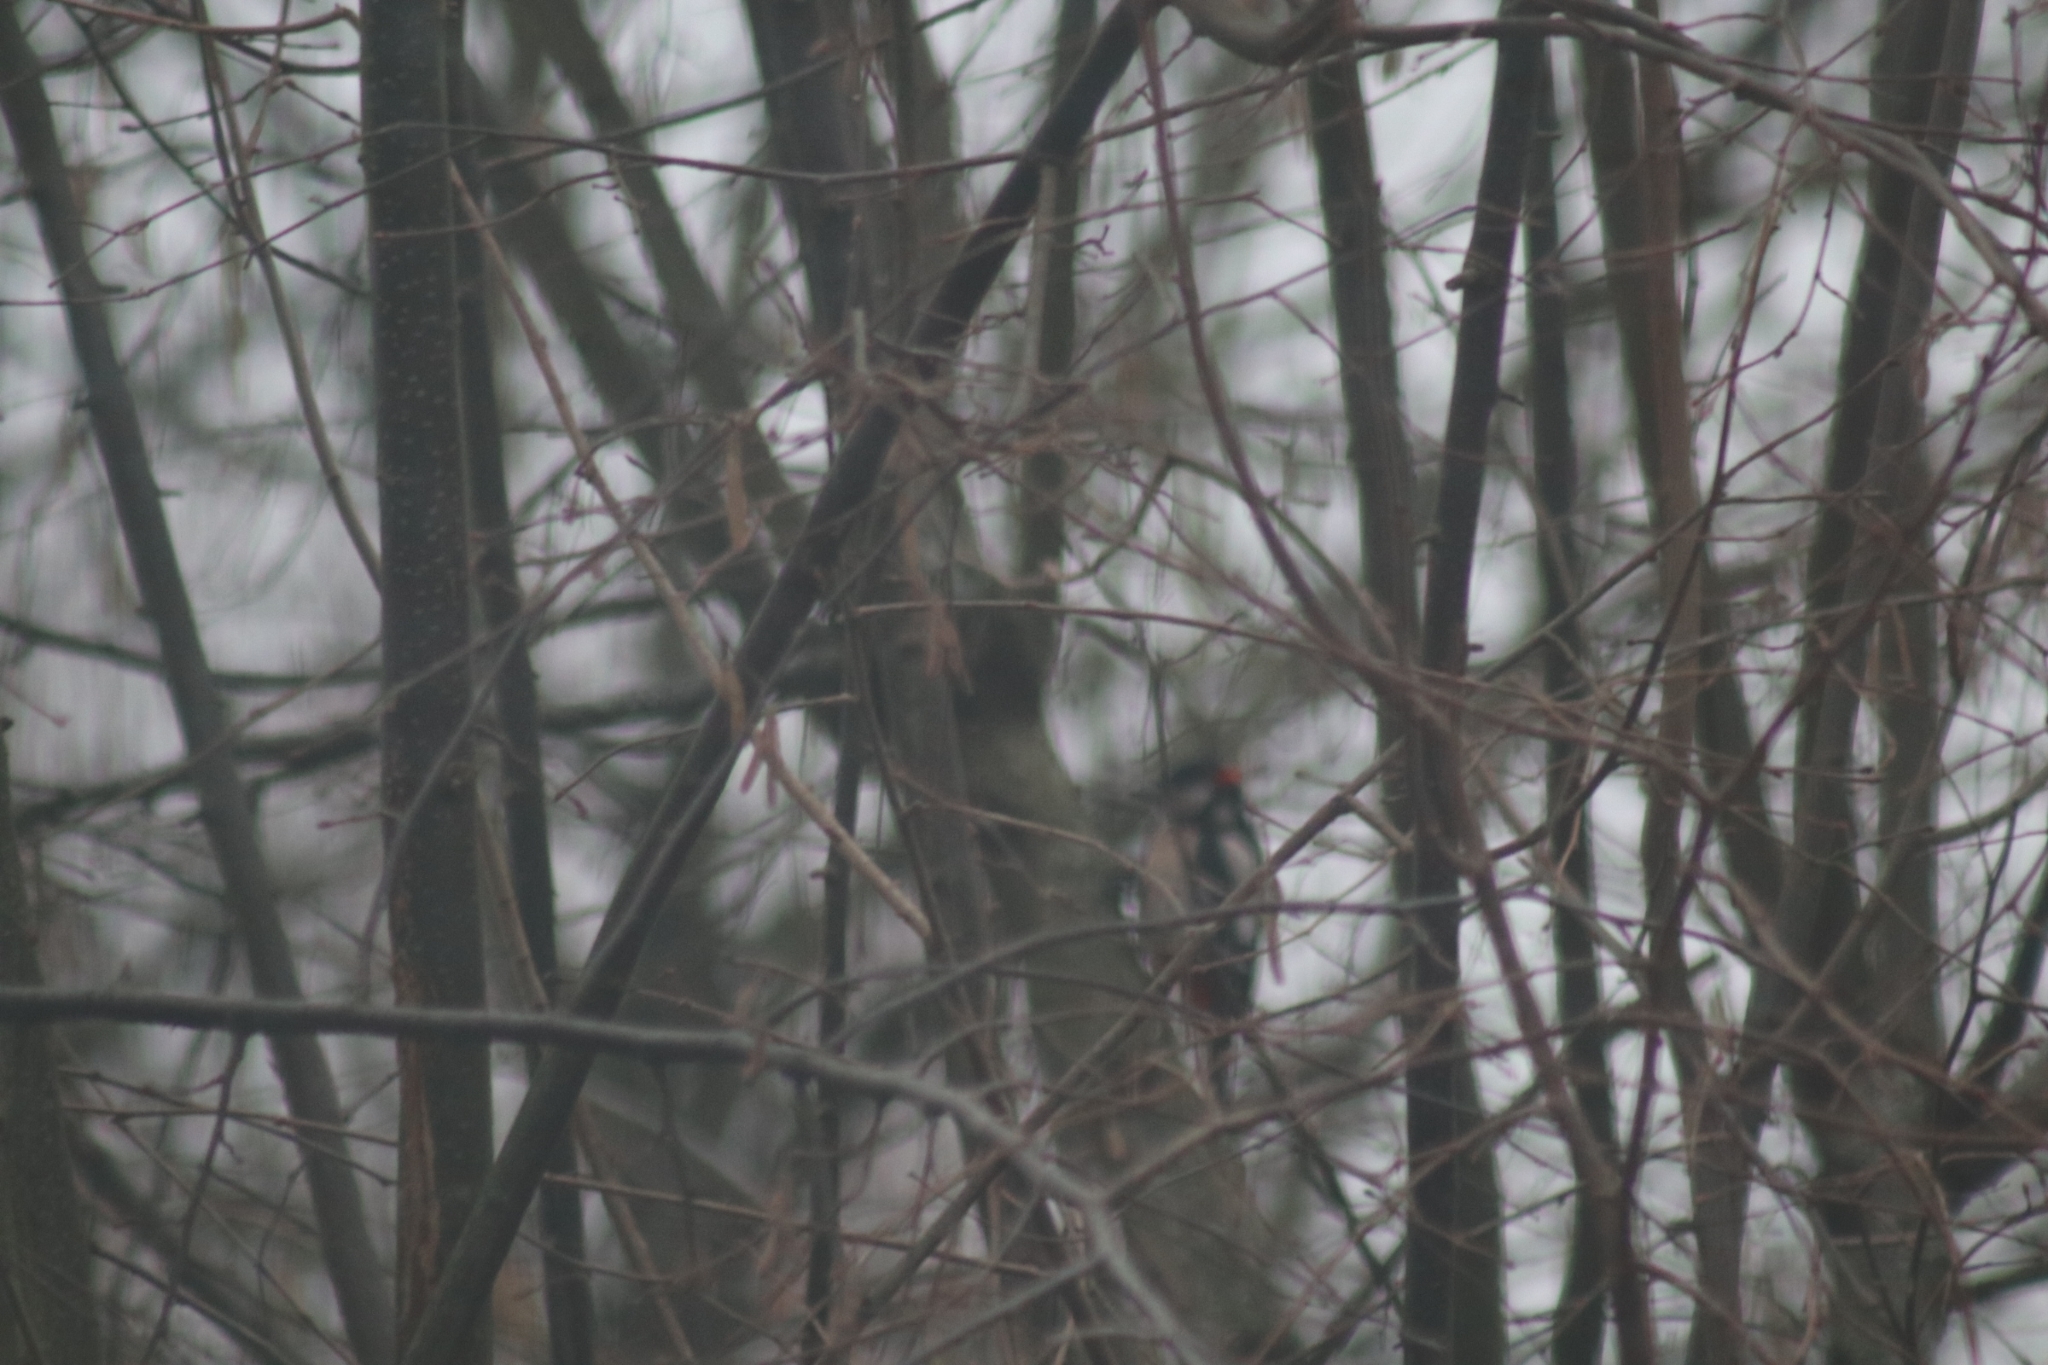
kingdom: Animalia
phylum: Chordata
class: Aves
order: Piciformes
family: Picidae
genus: Dendrocopos
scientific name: Dendrocopos major
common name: Great spotted woodpecker
